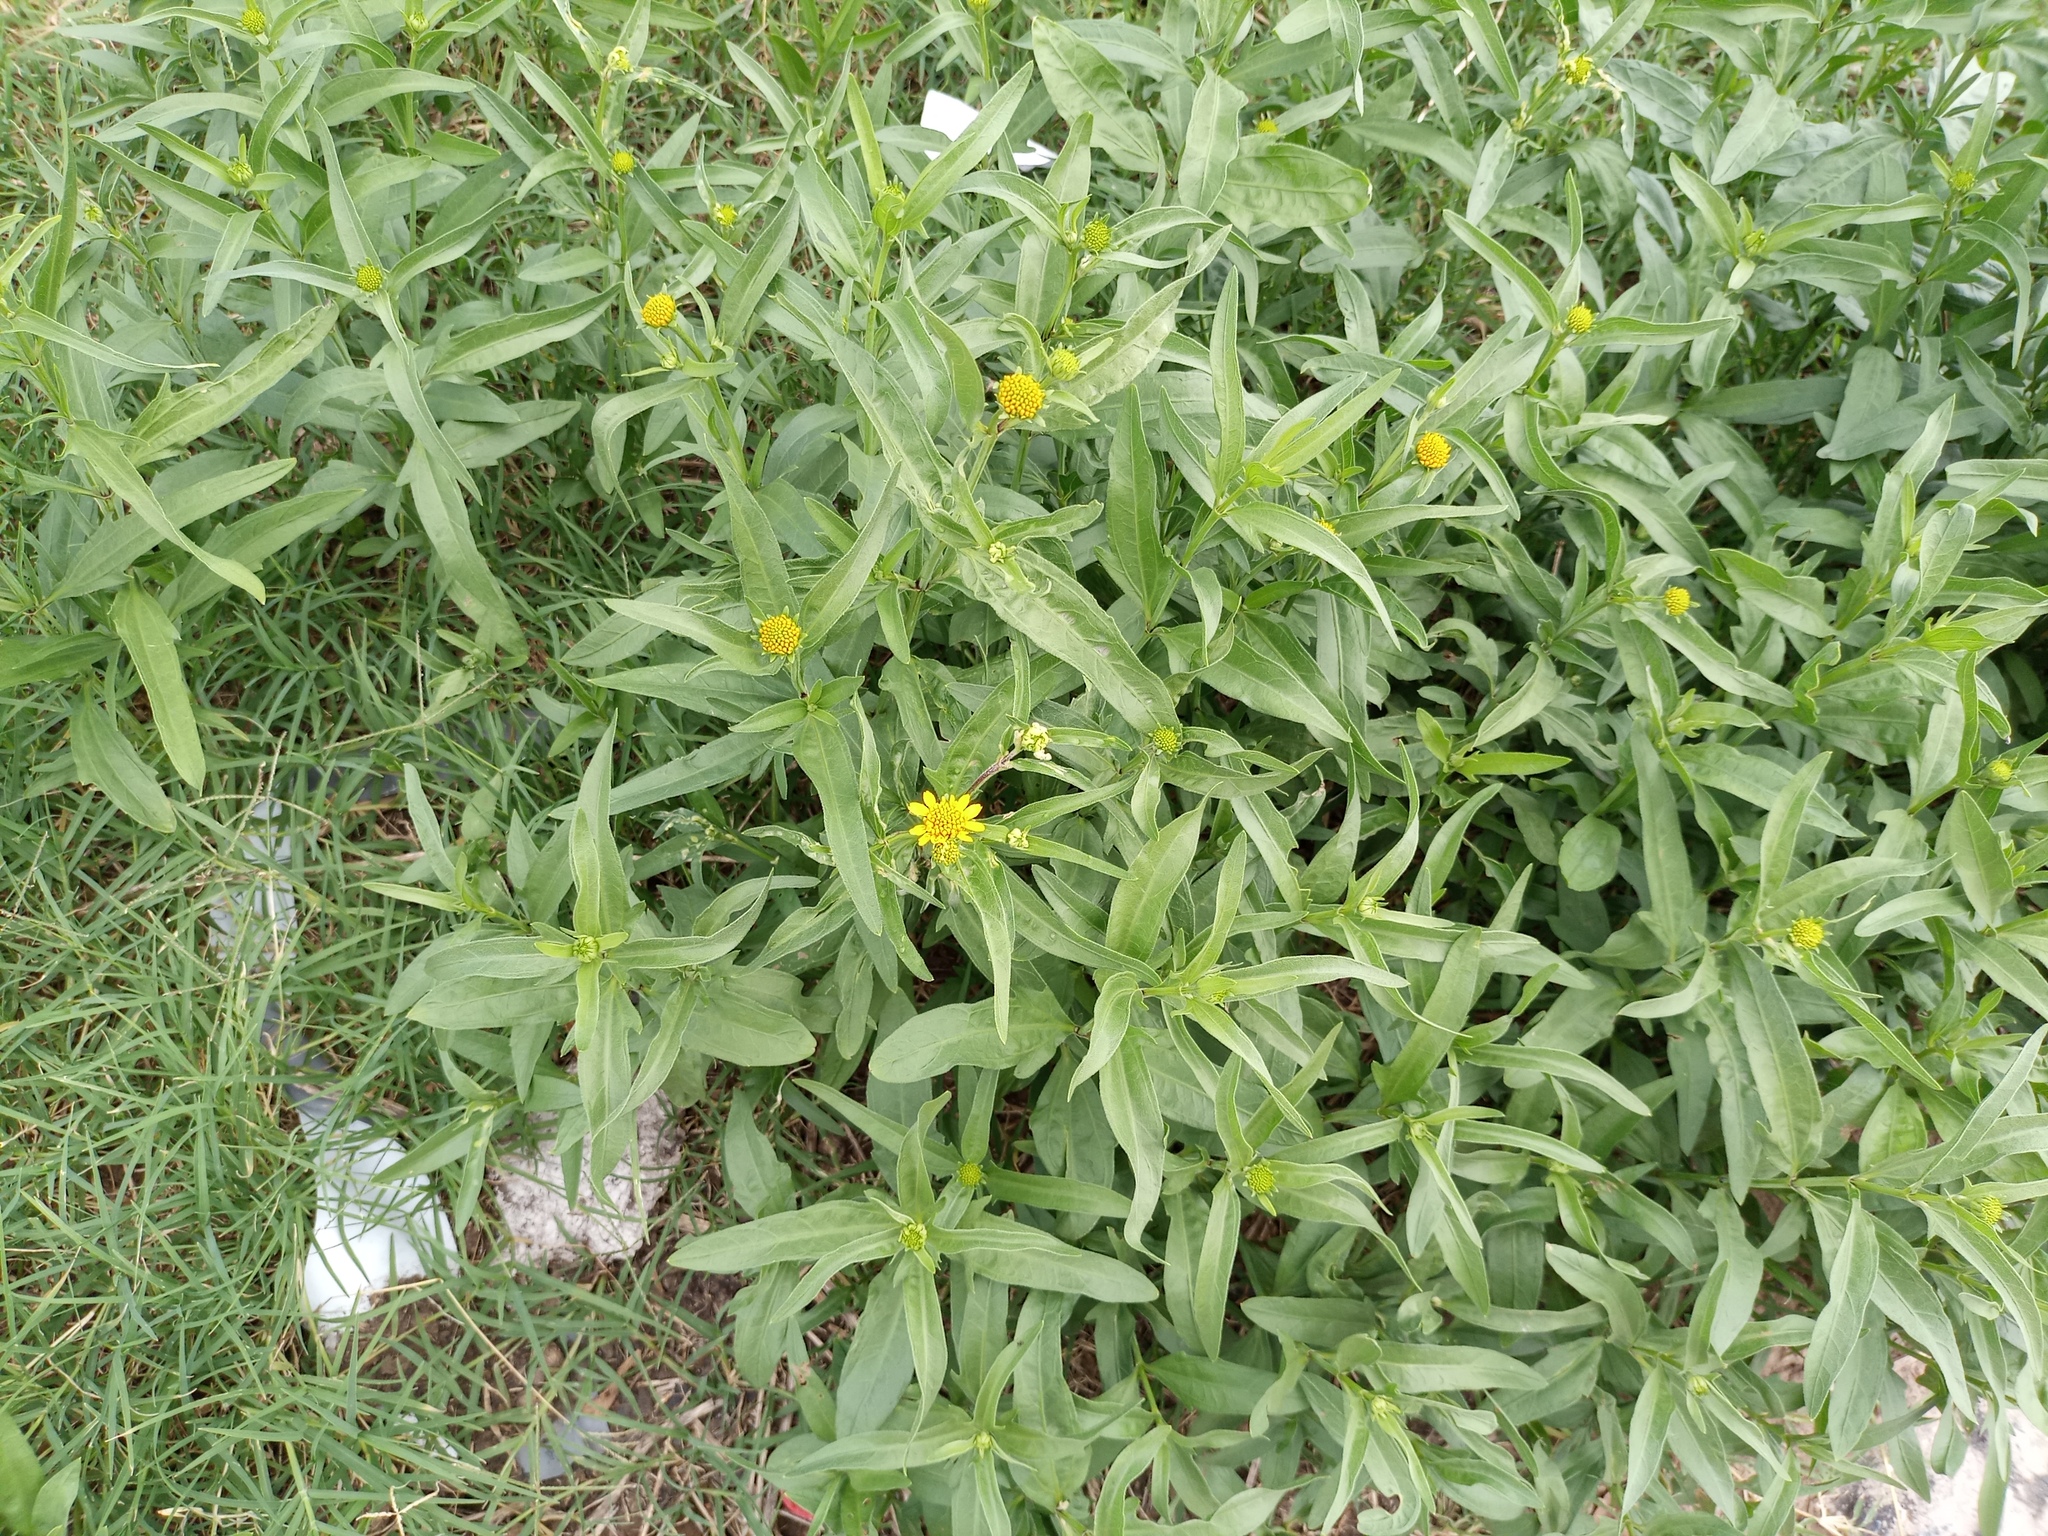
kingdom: Plantae
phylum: Tracheophyta
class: Magnoliopsida
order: Asterales
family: Asteraceae
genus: Pascalia
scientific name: Pascalia glauca
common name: Beach creeping oxeye
